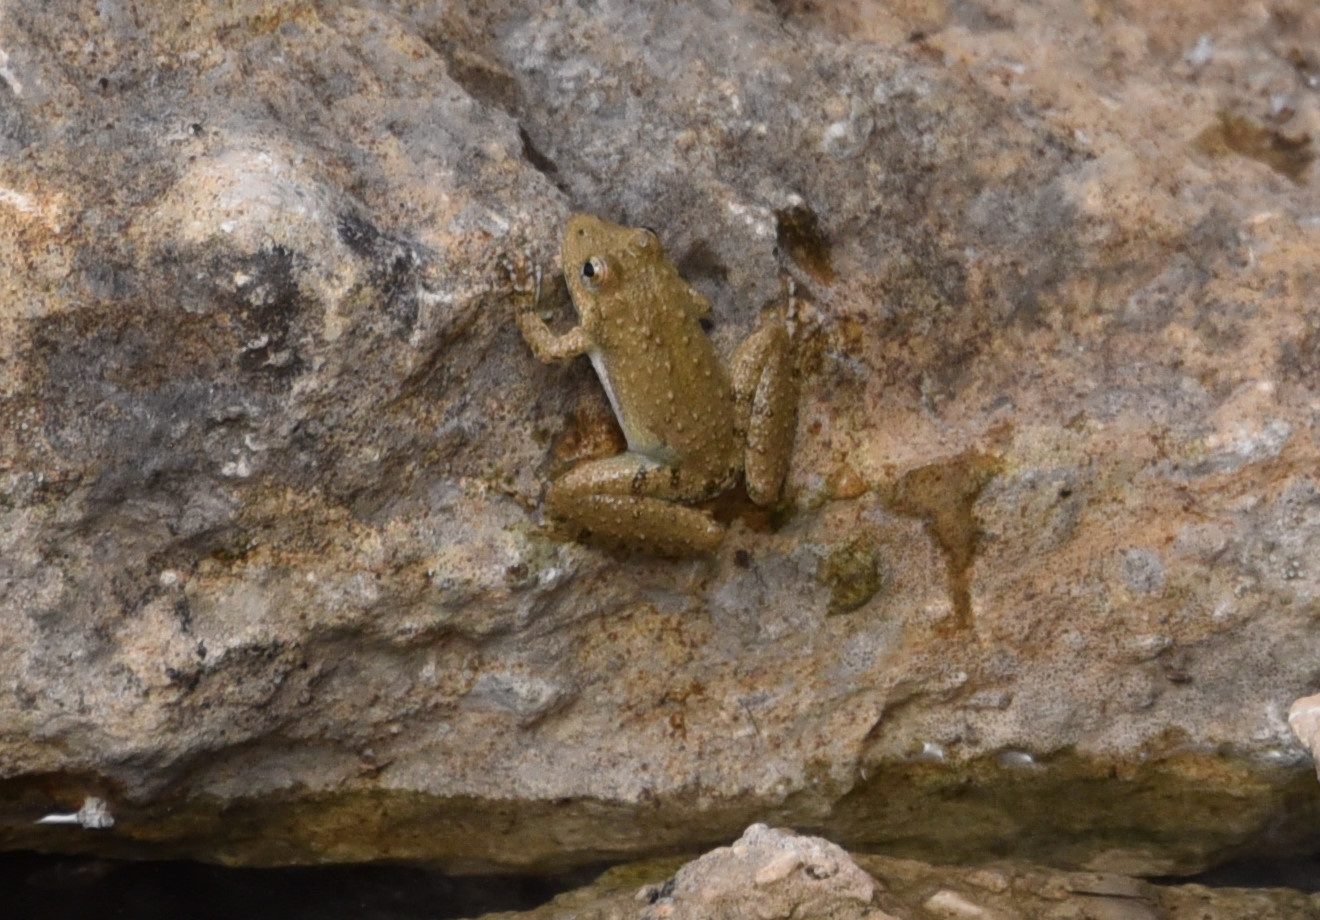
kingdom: Animalia
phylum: Chordata
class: Amphibia
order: Anura
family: Hylidae
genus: Acris
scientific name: Acris blanchardi
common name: Blanchard's cricket frog
